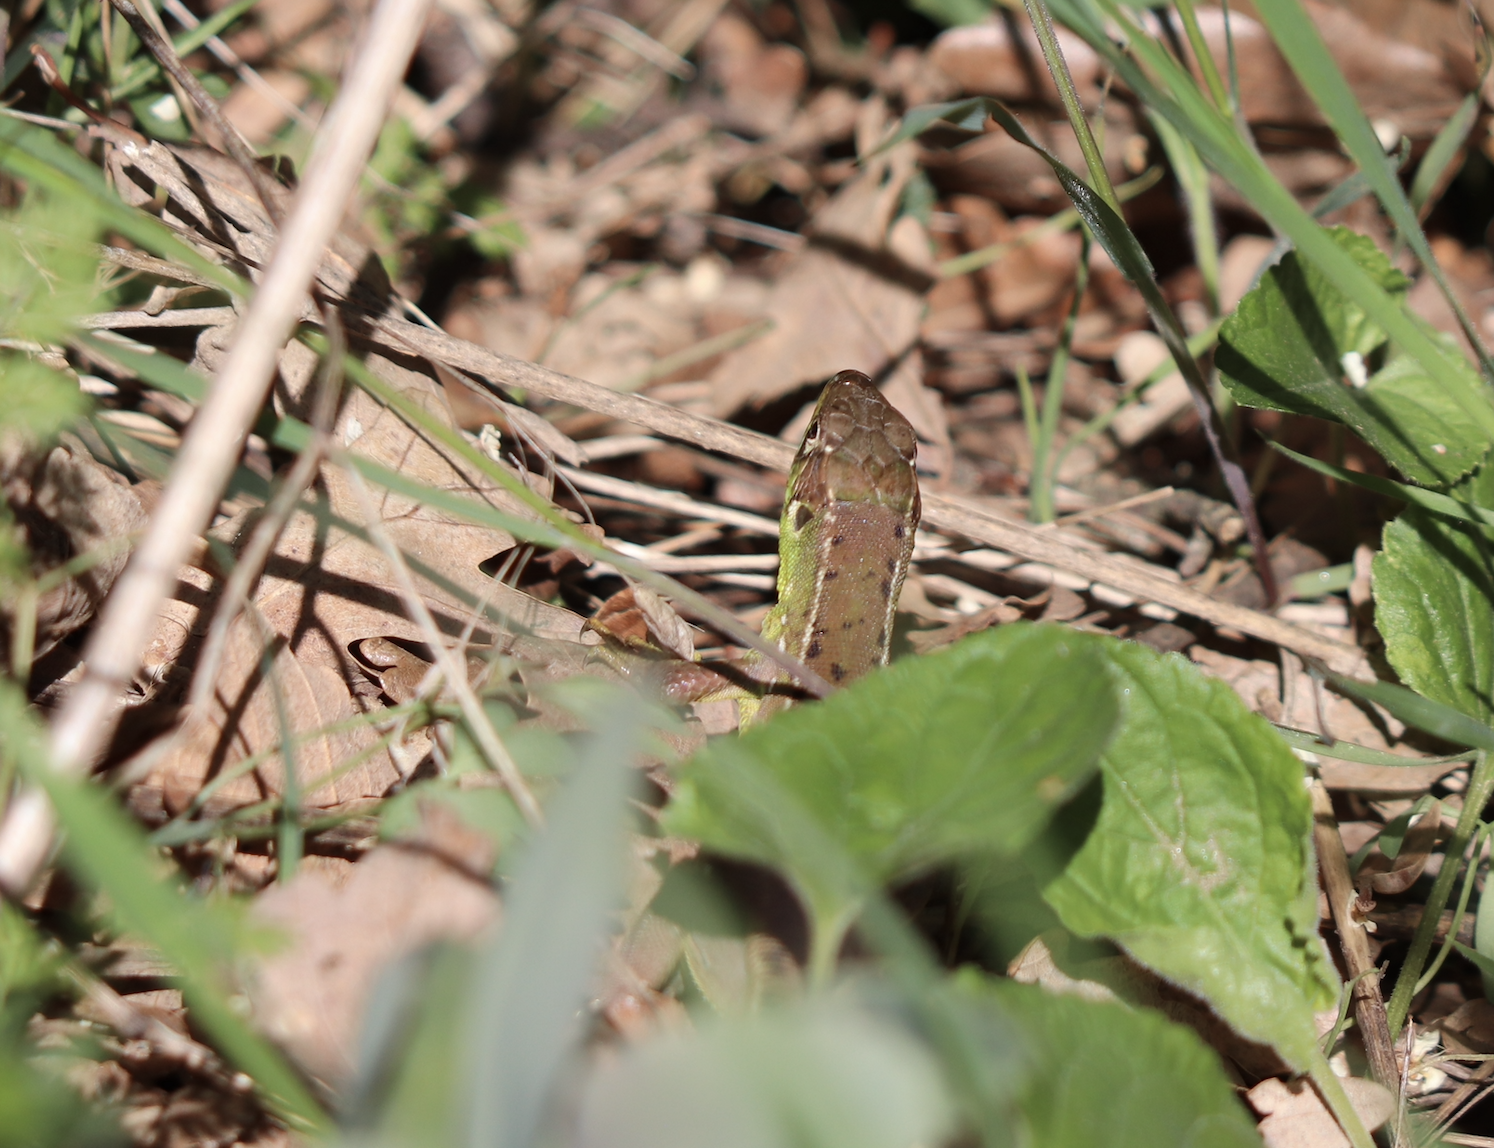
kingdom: Animalia
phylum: Chordata
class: Squamata
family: Lacertidae
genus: Lacerta
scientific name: Lacerta bilineata
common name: Western green lizard
